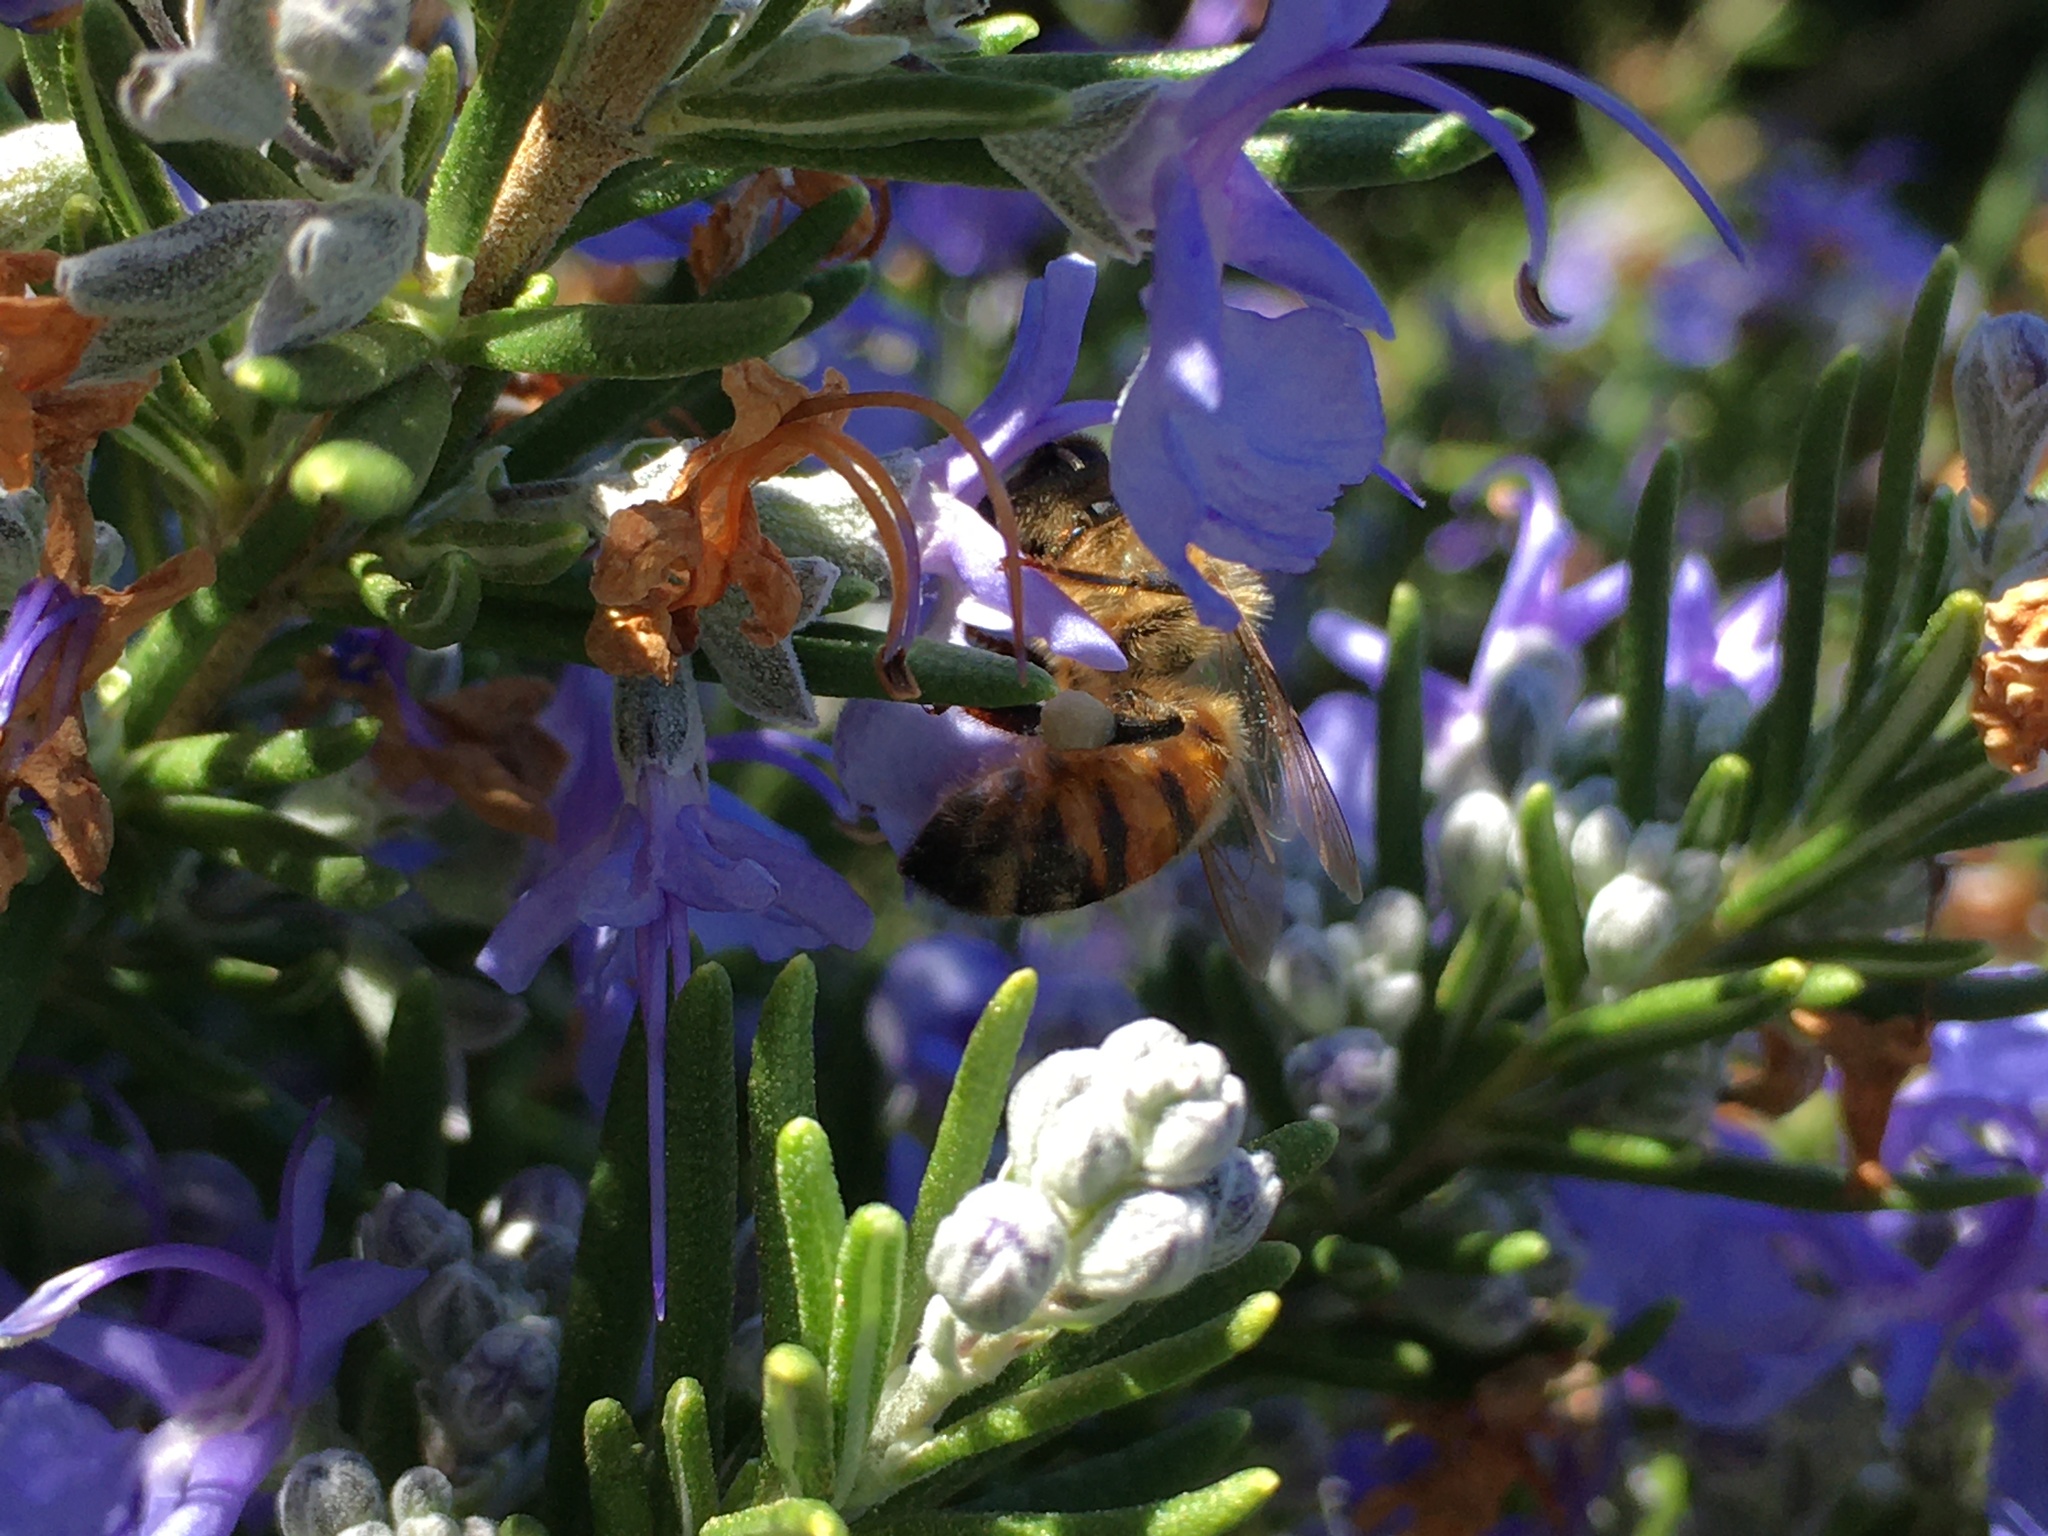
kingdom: Animalia
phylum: Arthropoda
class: Insecta
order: Hymenoptera
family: Apidae
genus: Apis
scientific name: Apis mellifera
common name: Honey bee
